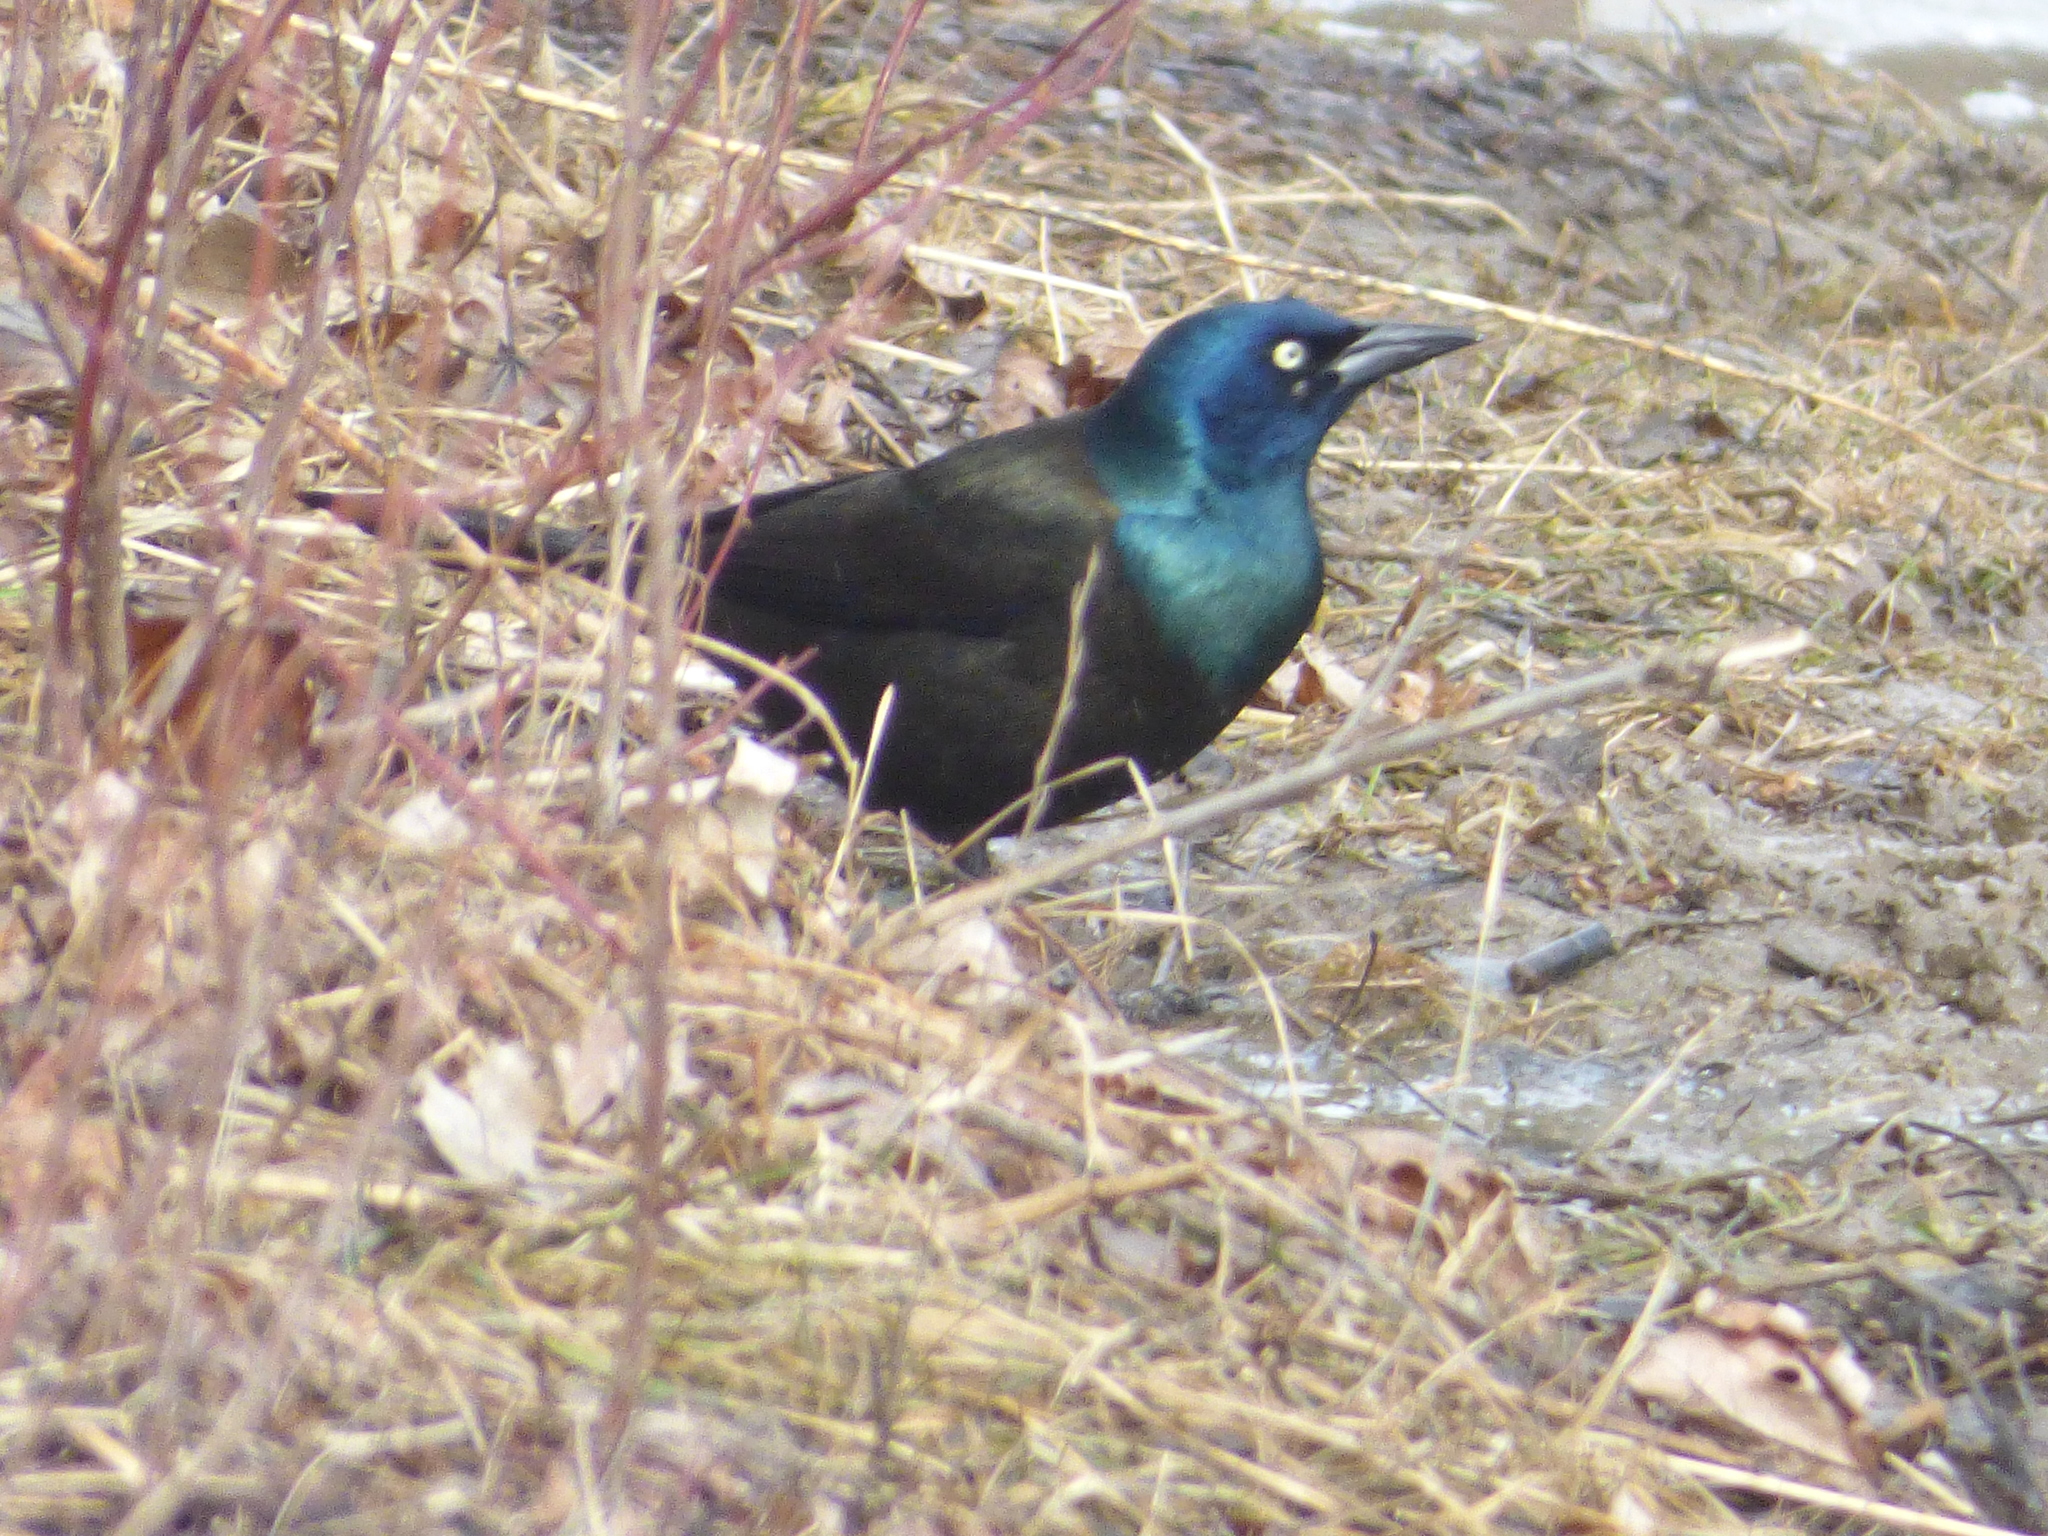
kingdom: Animalia
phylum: Chordata
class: Aves
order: Passeriformes
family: Icteridae
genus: Quiscalus
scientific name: Quiscalus quiscula
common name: Common grackle
